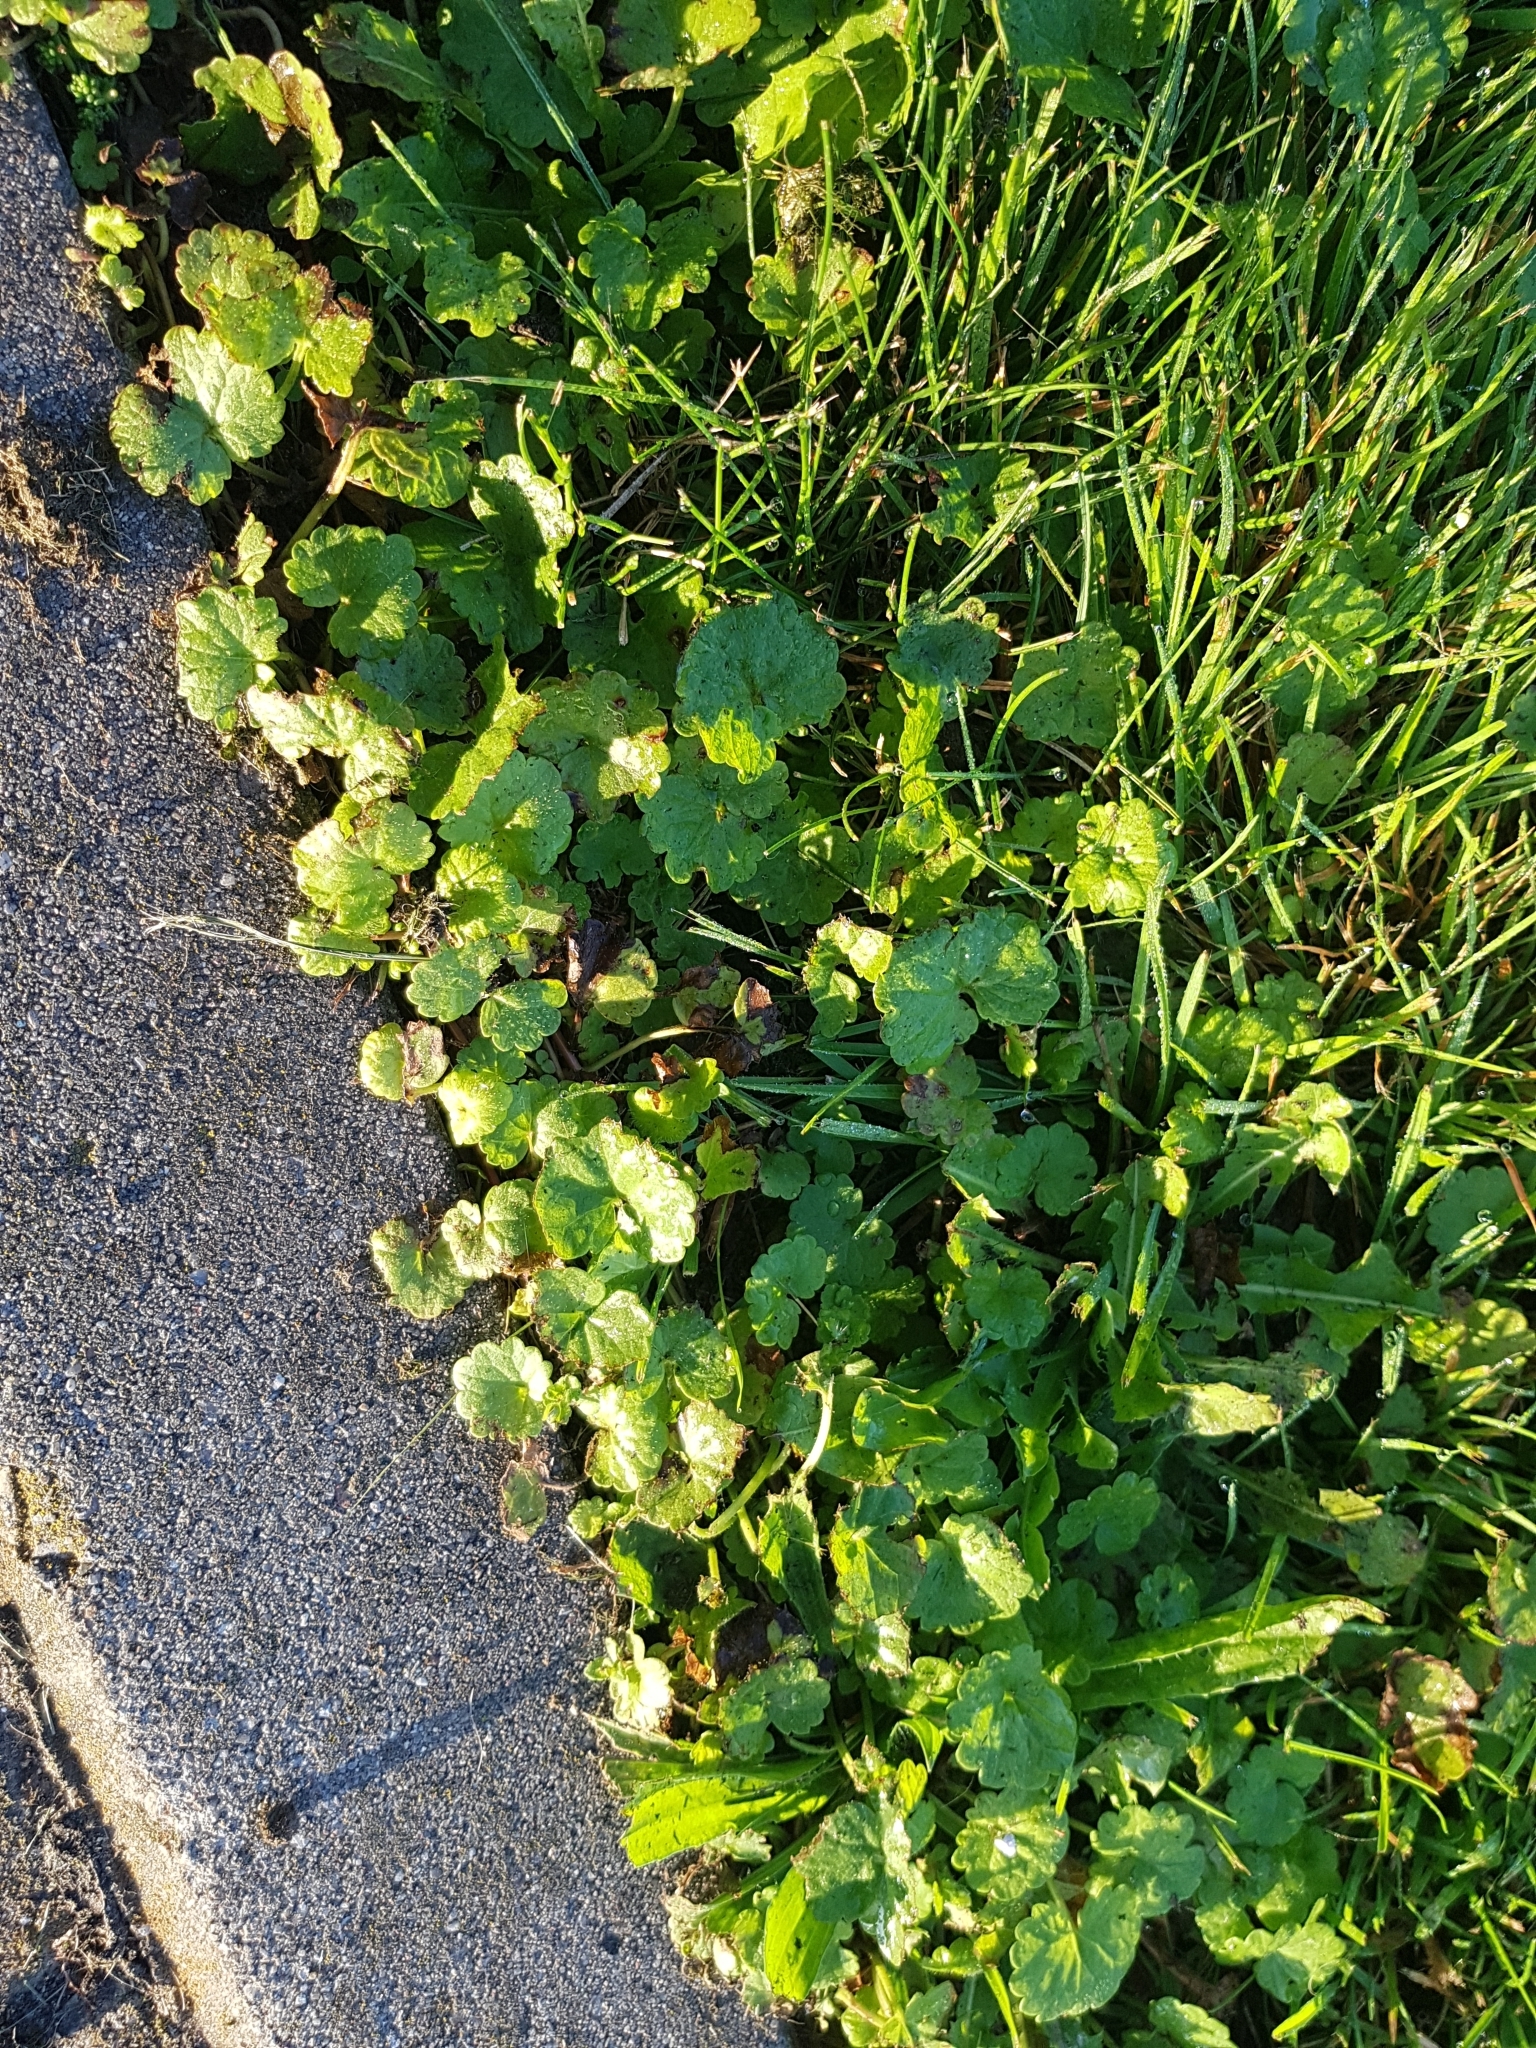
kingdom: Plantae
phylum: Tracheophyta
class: Magnoliopsida
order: Lamiales
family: Lamiaceae
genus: Glechoma
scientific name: Glechoma hederacea
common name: Ground ivy
